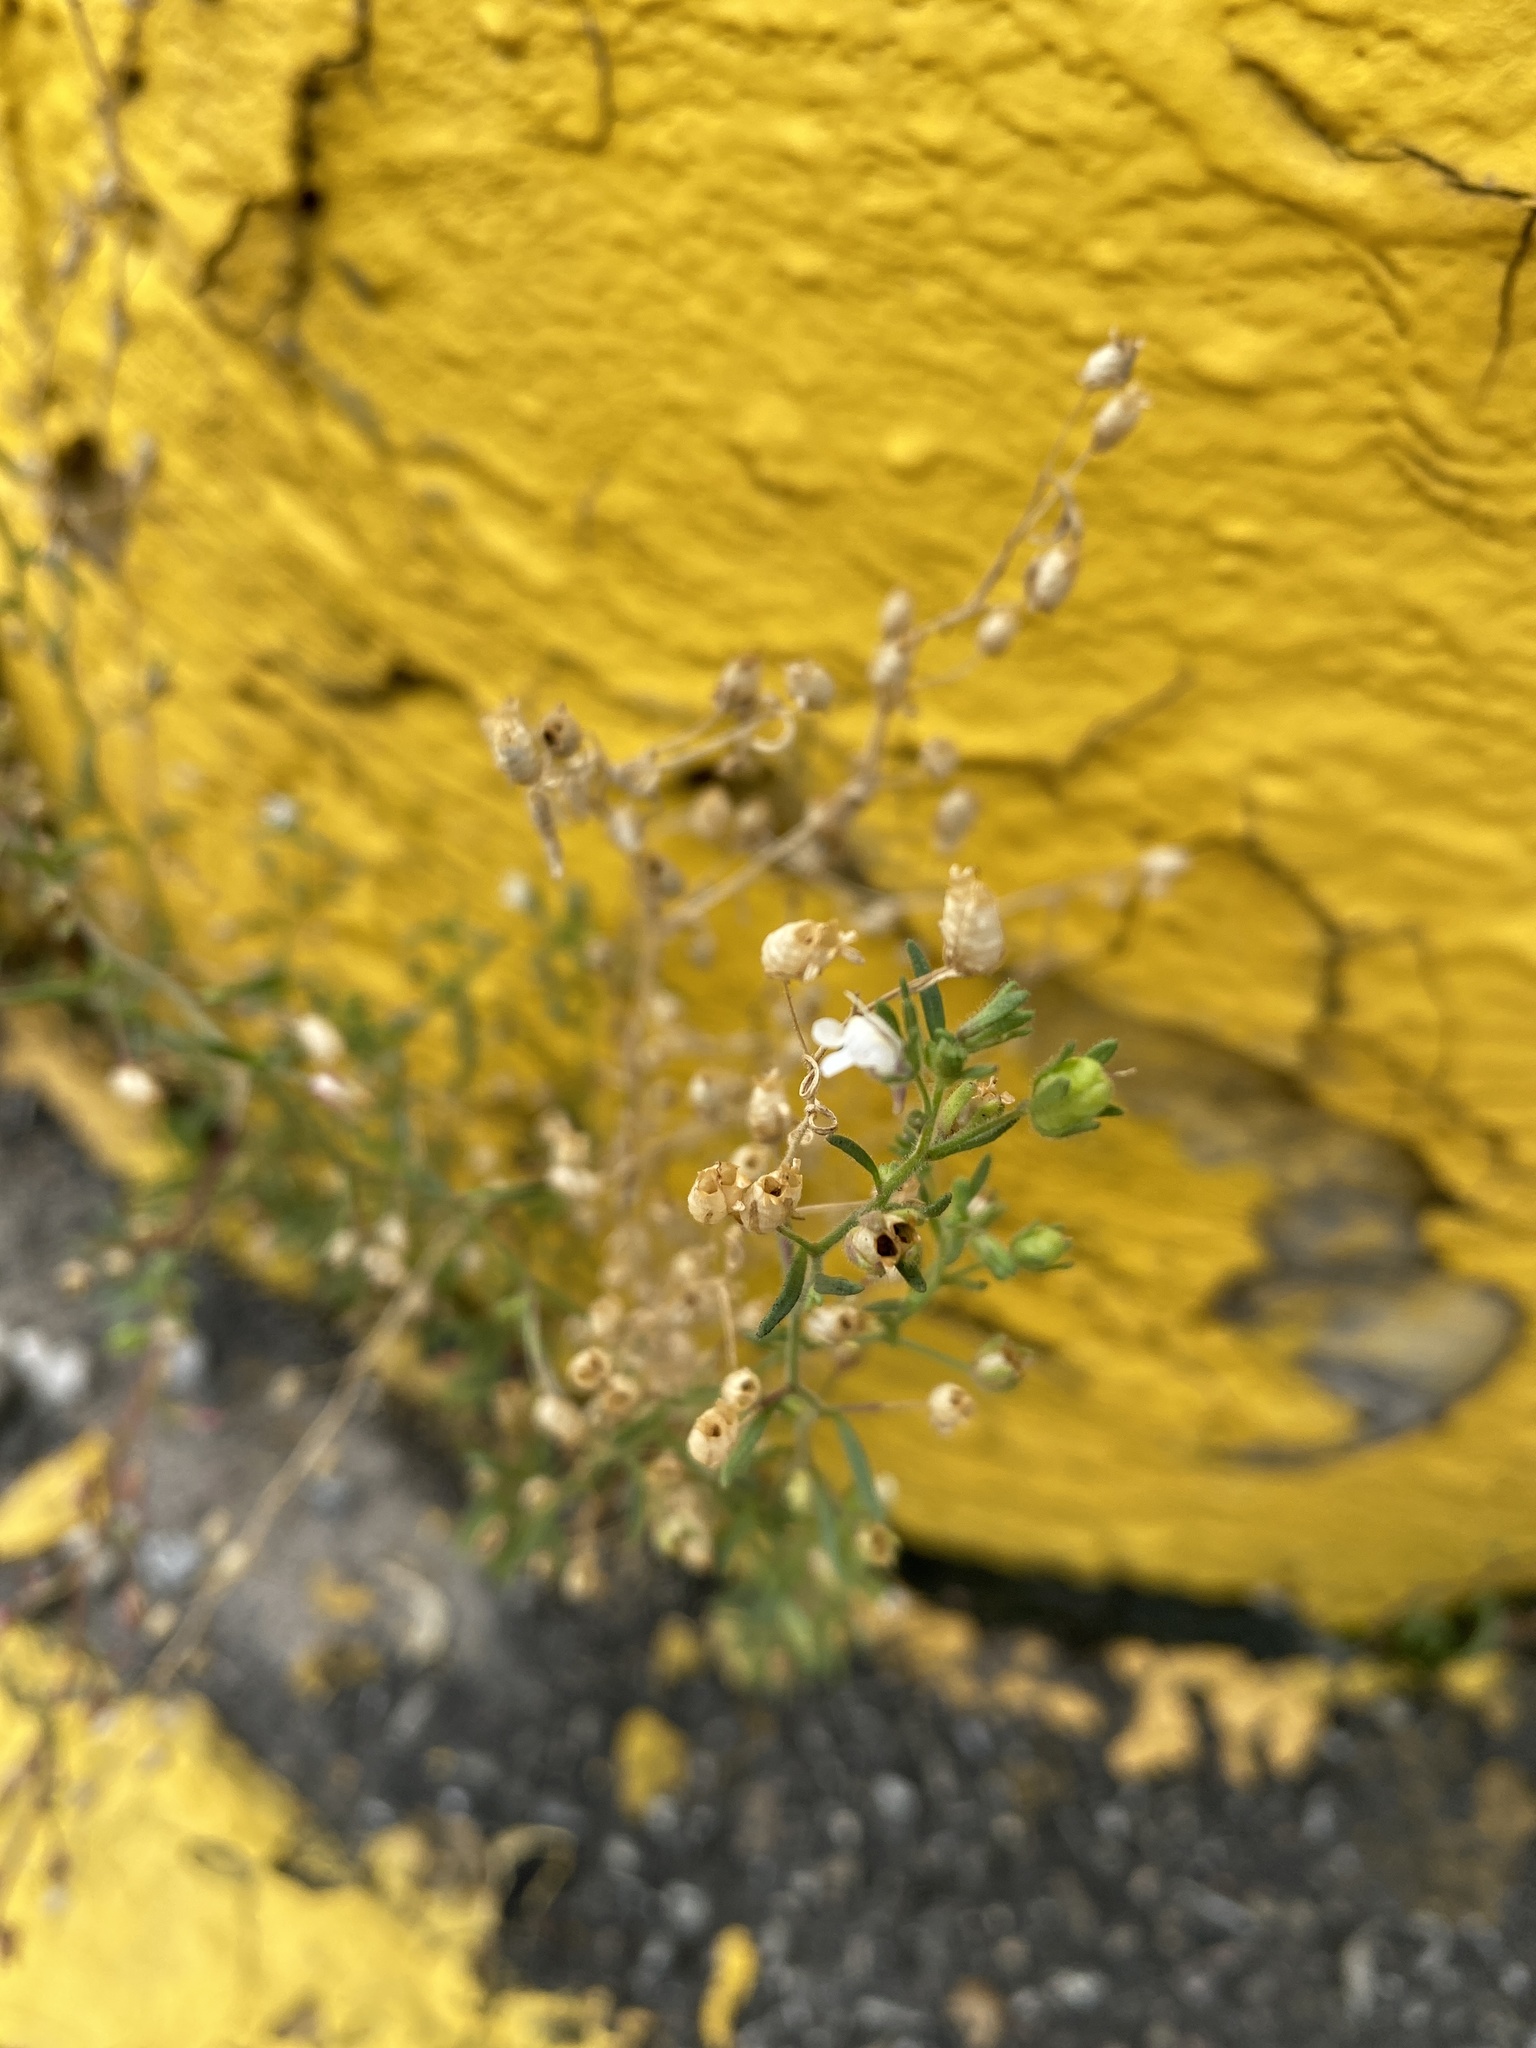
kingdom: Plantae
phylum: Tracheophyta
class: Magnoliopsida
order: Lamiales
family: Plantaginaceae
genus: Chaenorhinum
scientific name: Chaenorhinum minus
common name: Dwarf snapdragon
